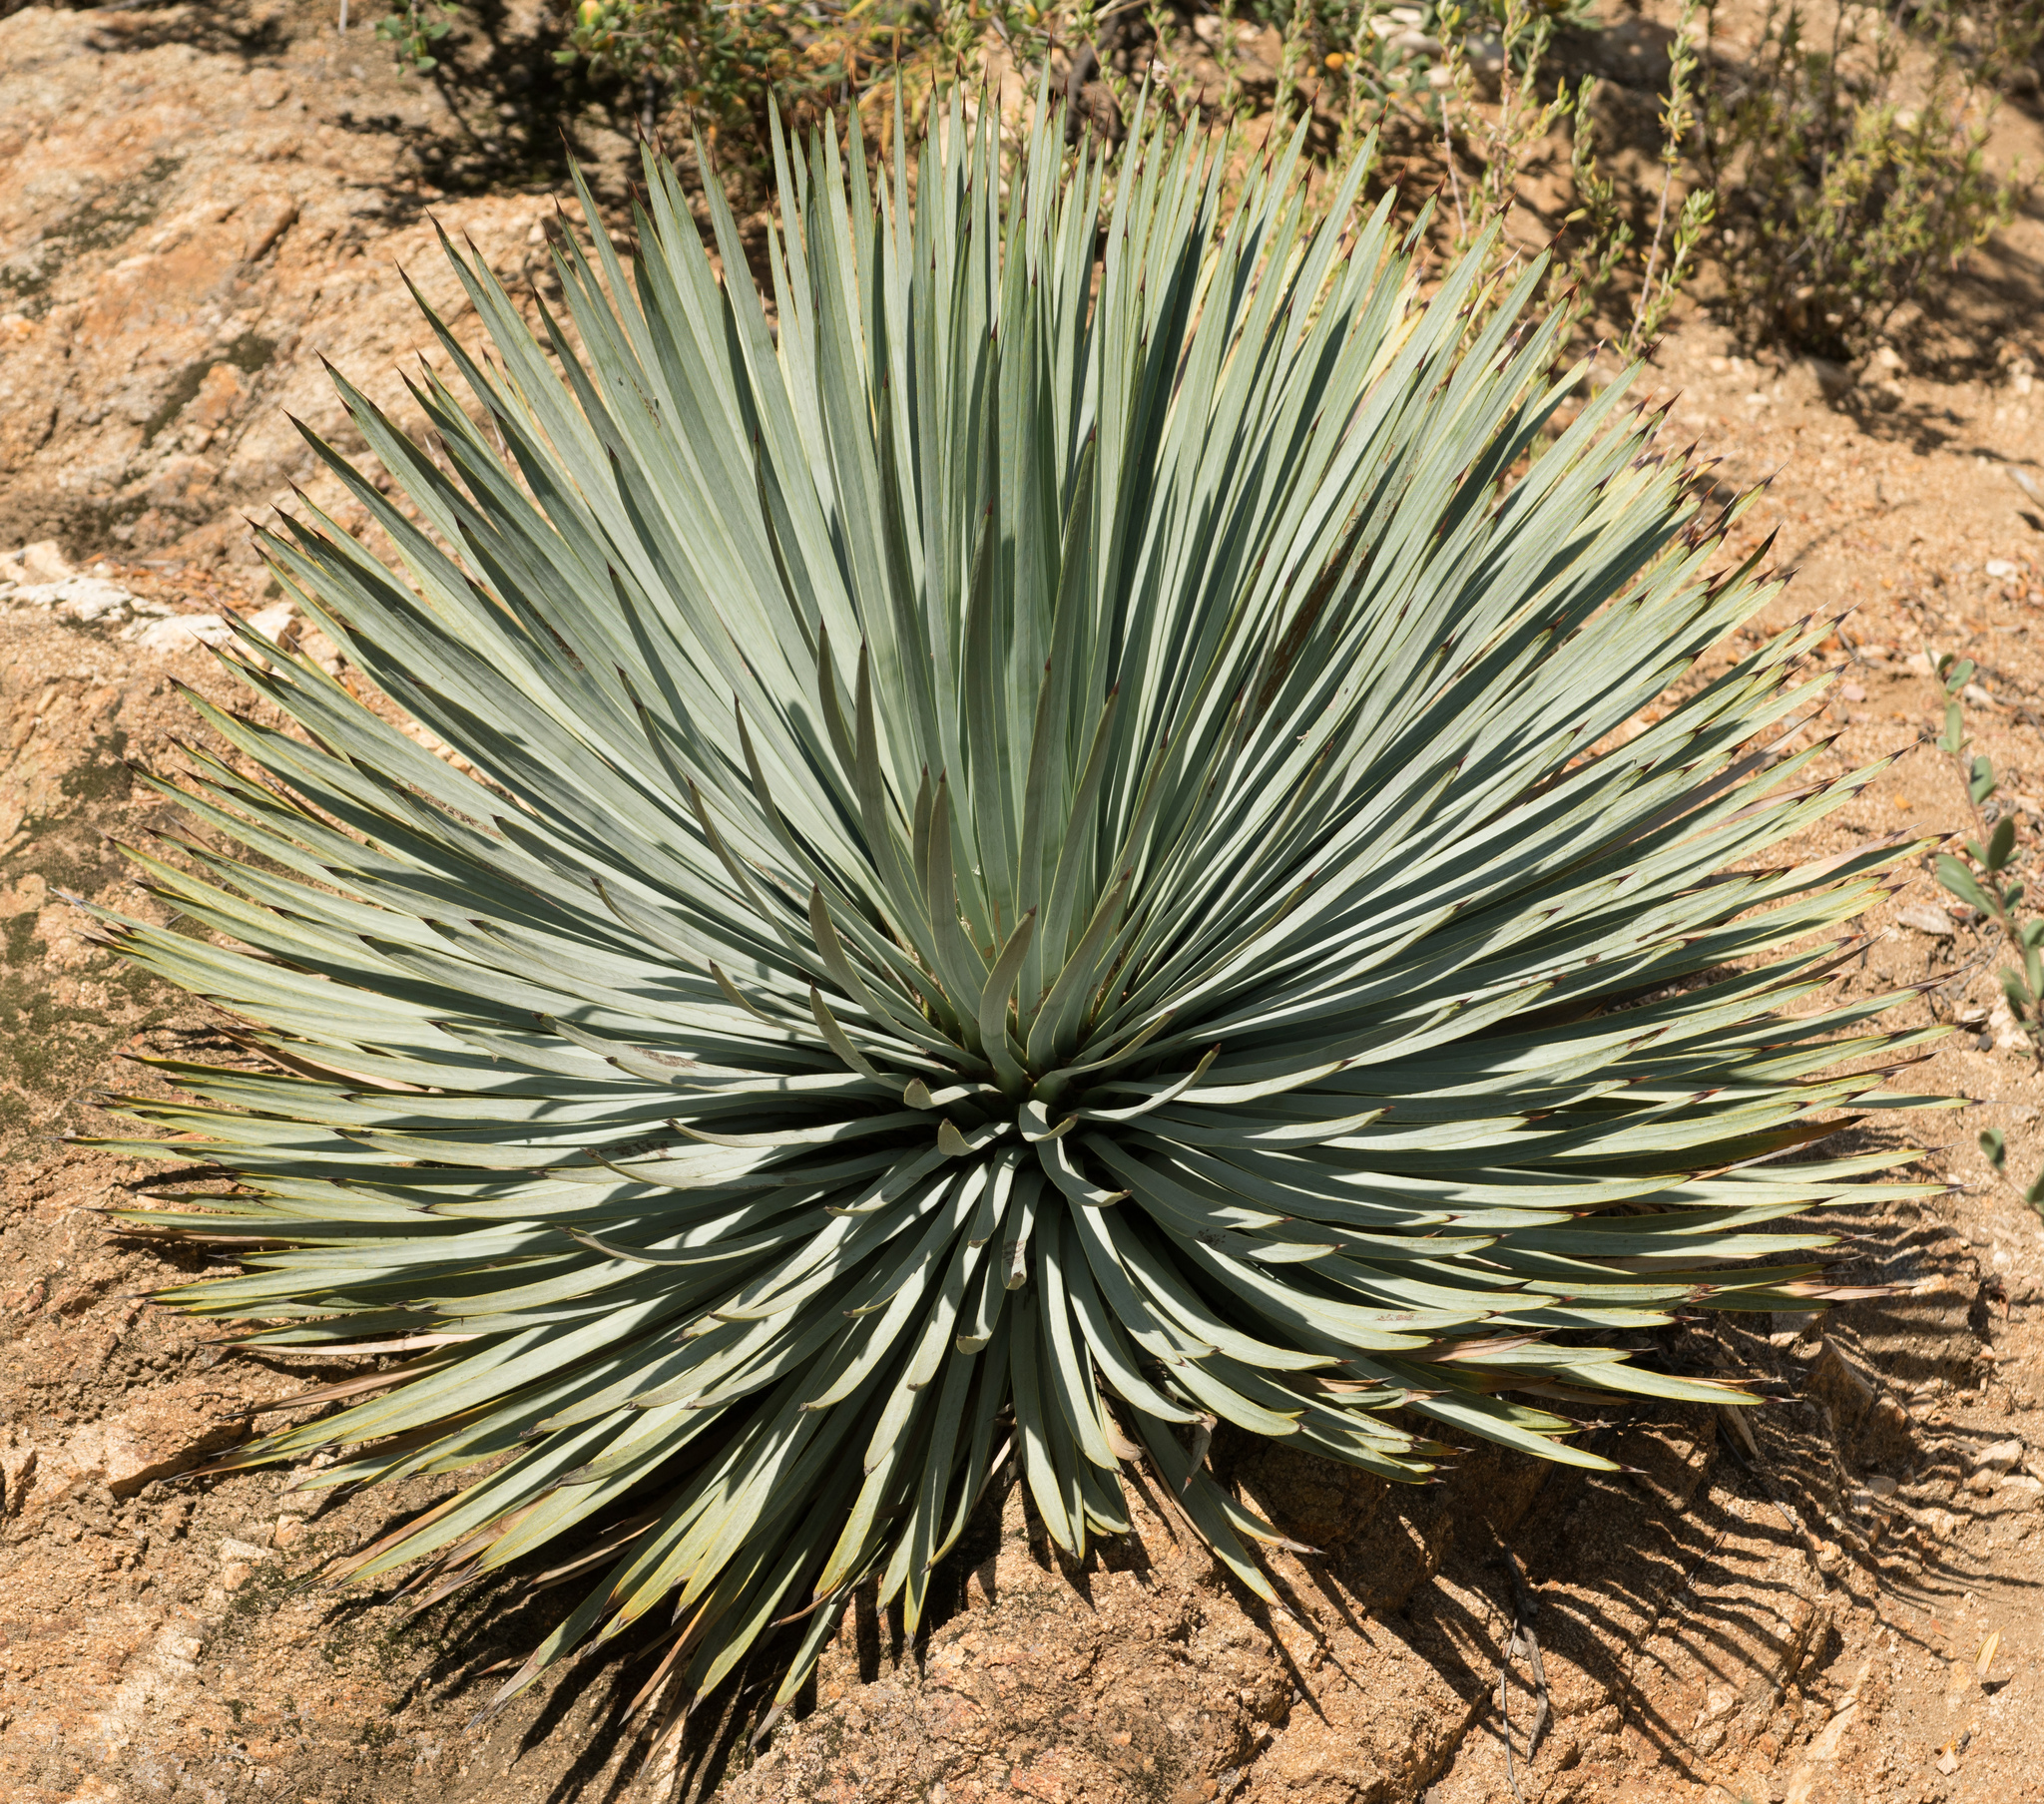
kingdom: Plantae
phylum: Tracheophyta
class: Liliopsida
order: Asparagales
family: Asparagaceae
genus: Hesperoyucca
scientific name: Hesperoyucca whipplei
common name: Our lord's-candle
